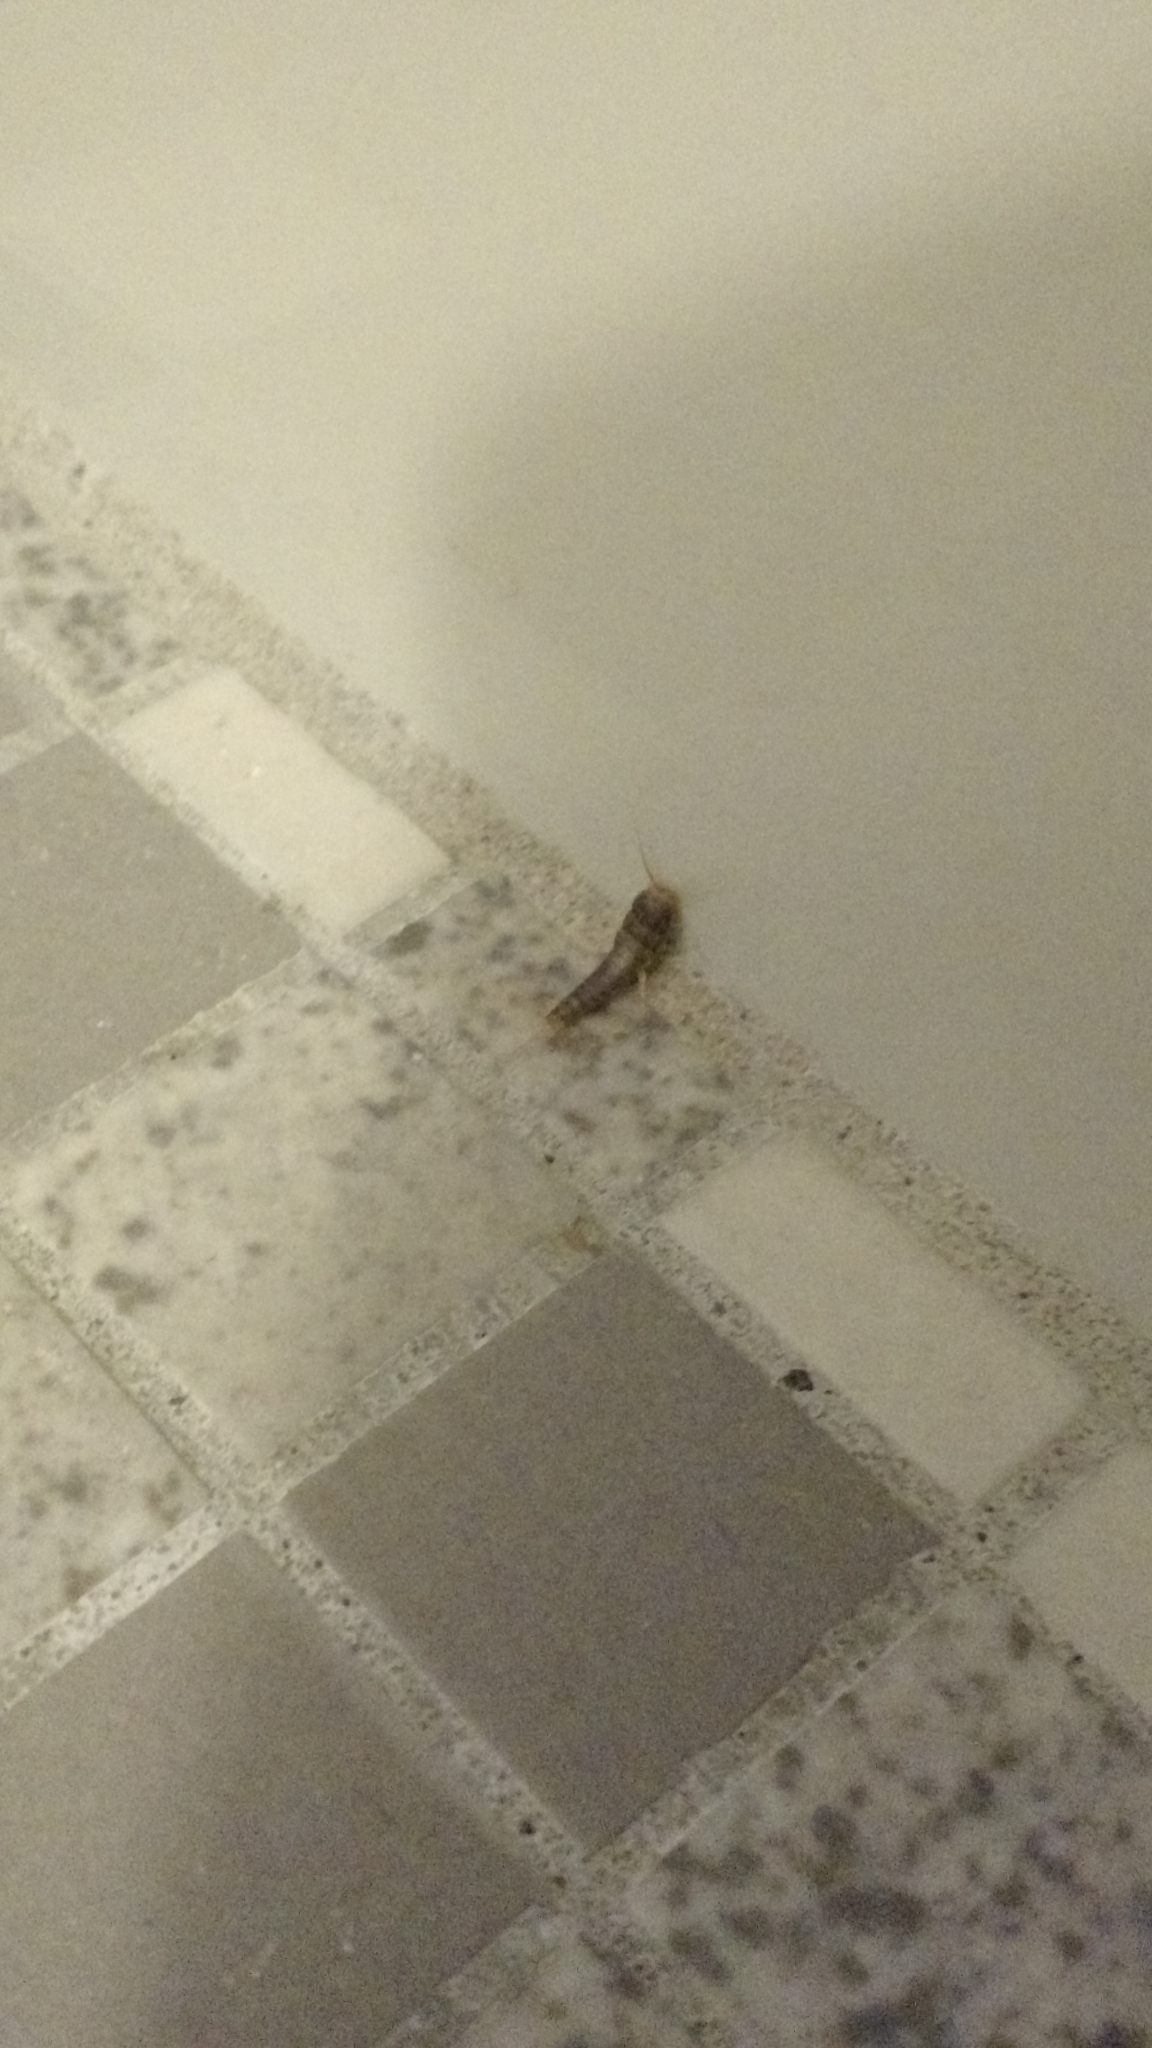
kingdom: Animalia
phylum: Arthropoda
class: Insecta
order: Zygentoma
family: Lepismatidae
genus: Lepisma
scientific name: Lepisma saccharinum
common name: Silverfish
